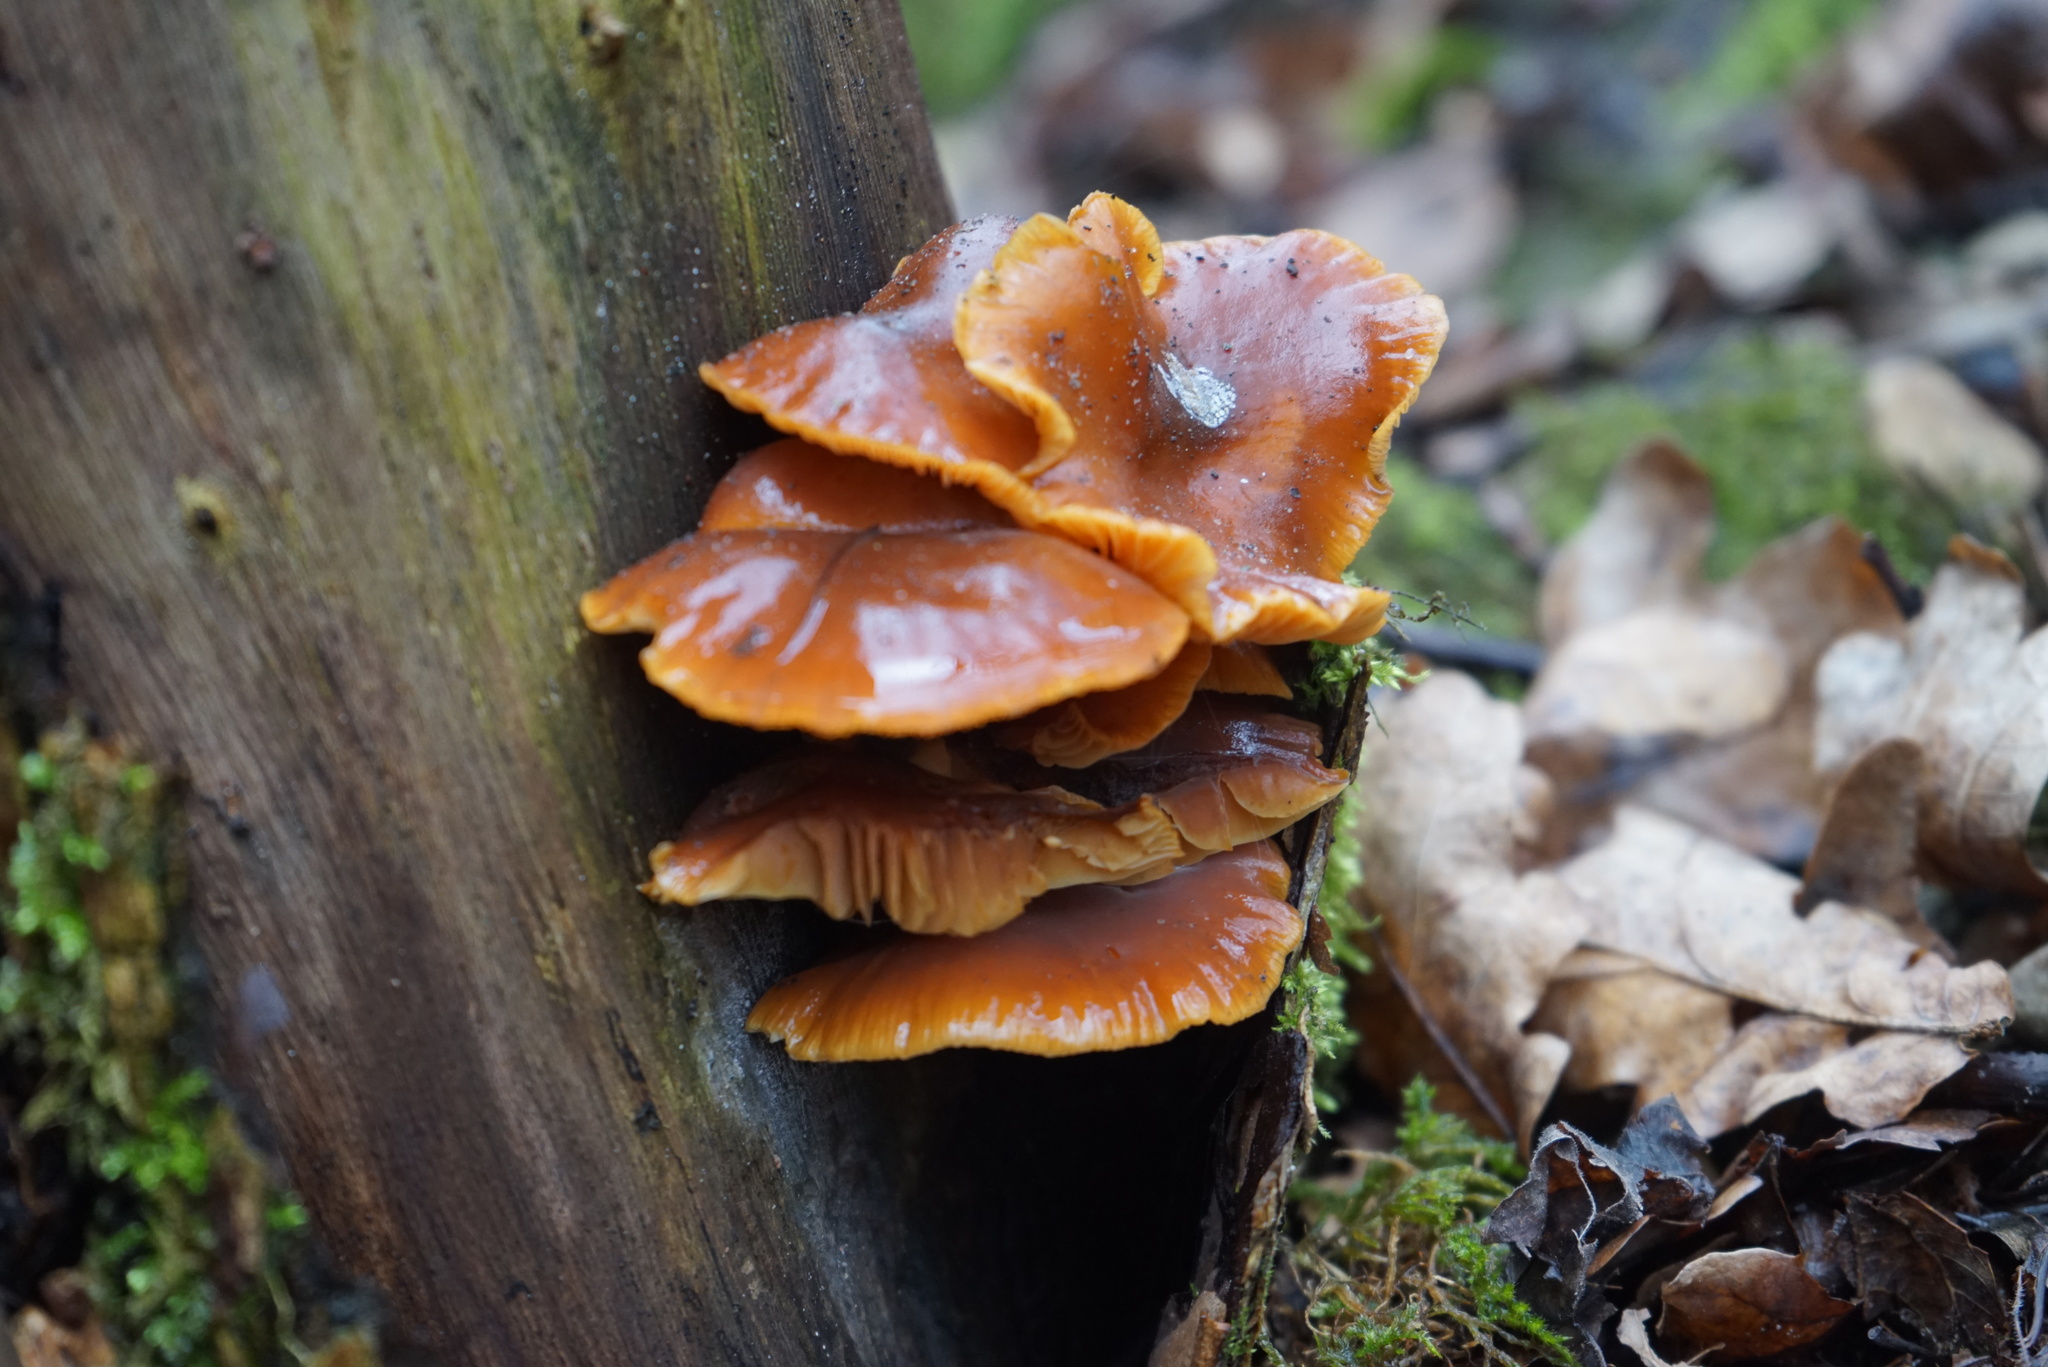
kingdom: Fungi
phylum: Basidiomycota
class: Agaricomycetes
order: Agaricales
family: Physalacriaceae
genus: Flammulina
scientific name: Flammulina
